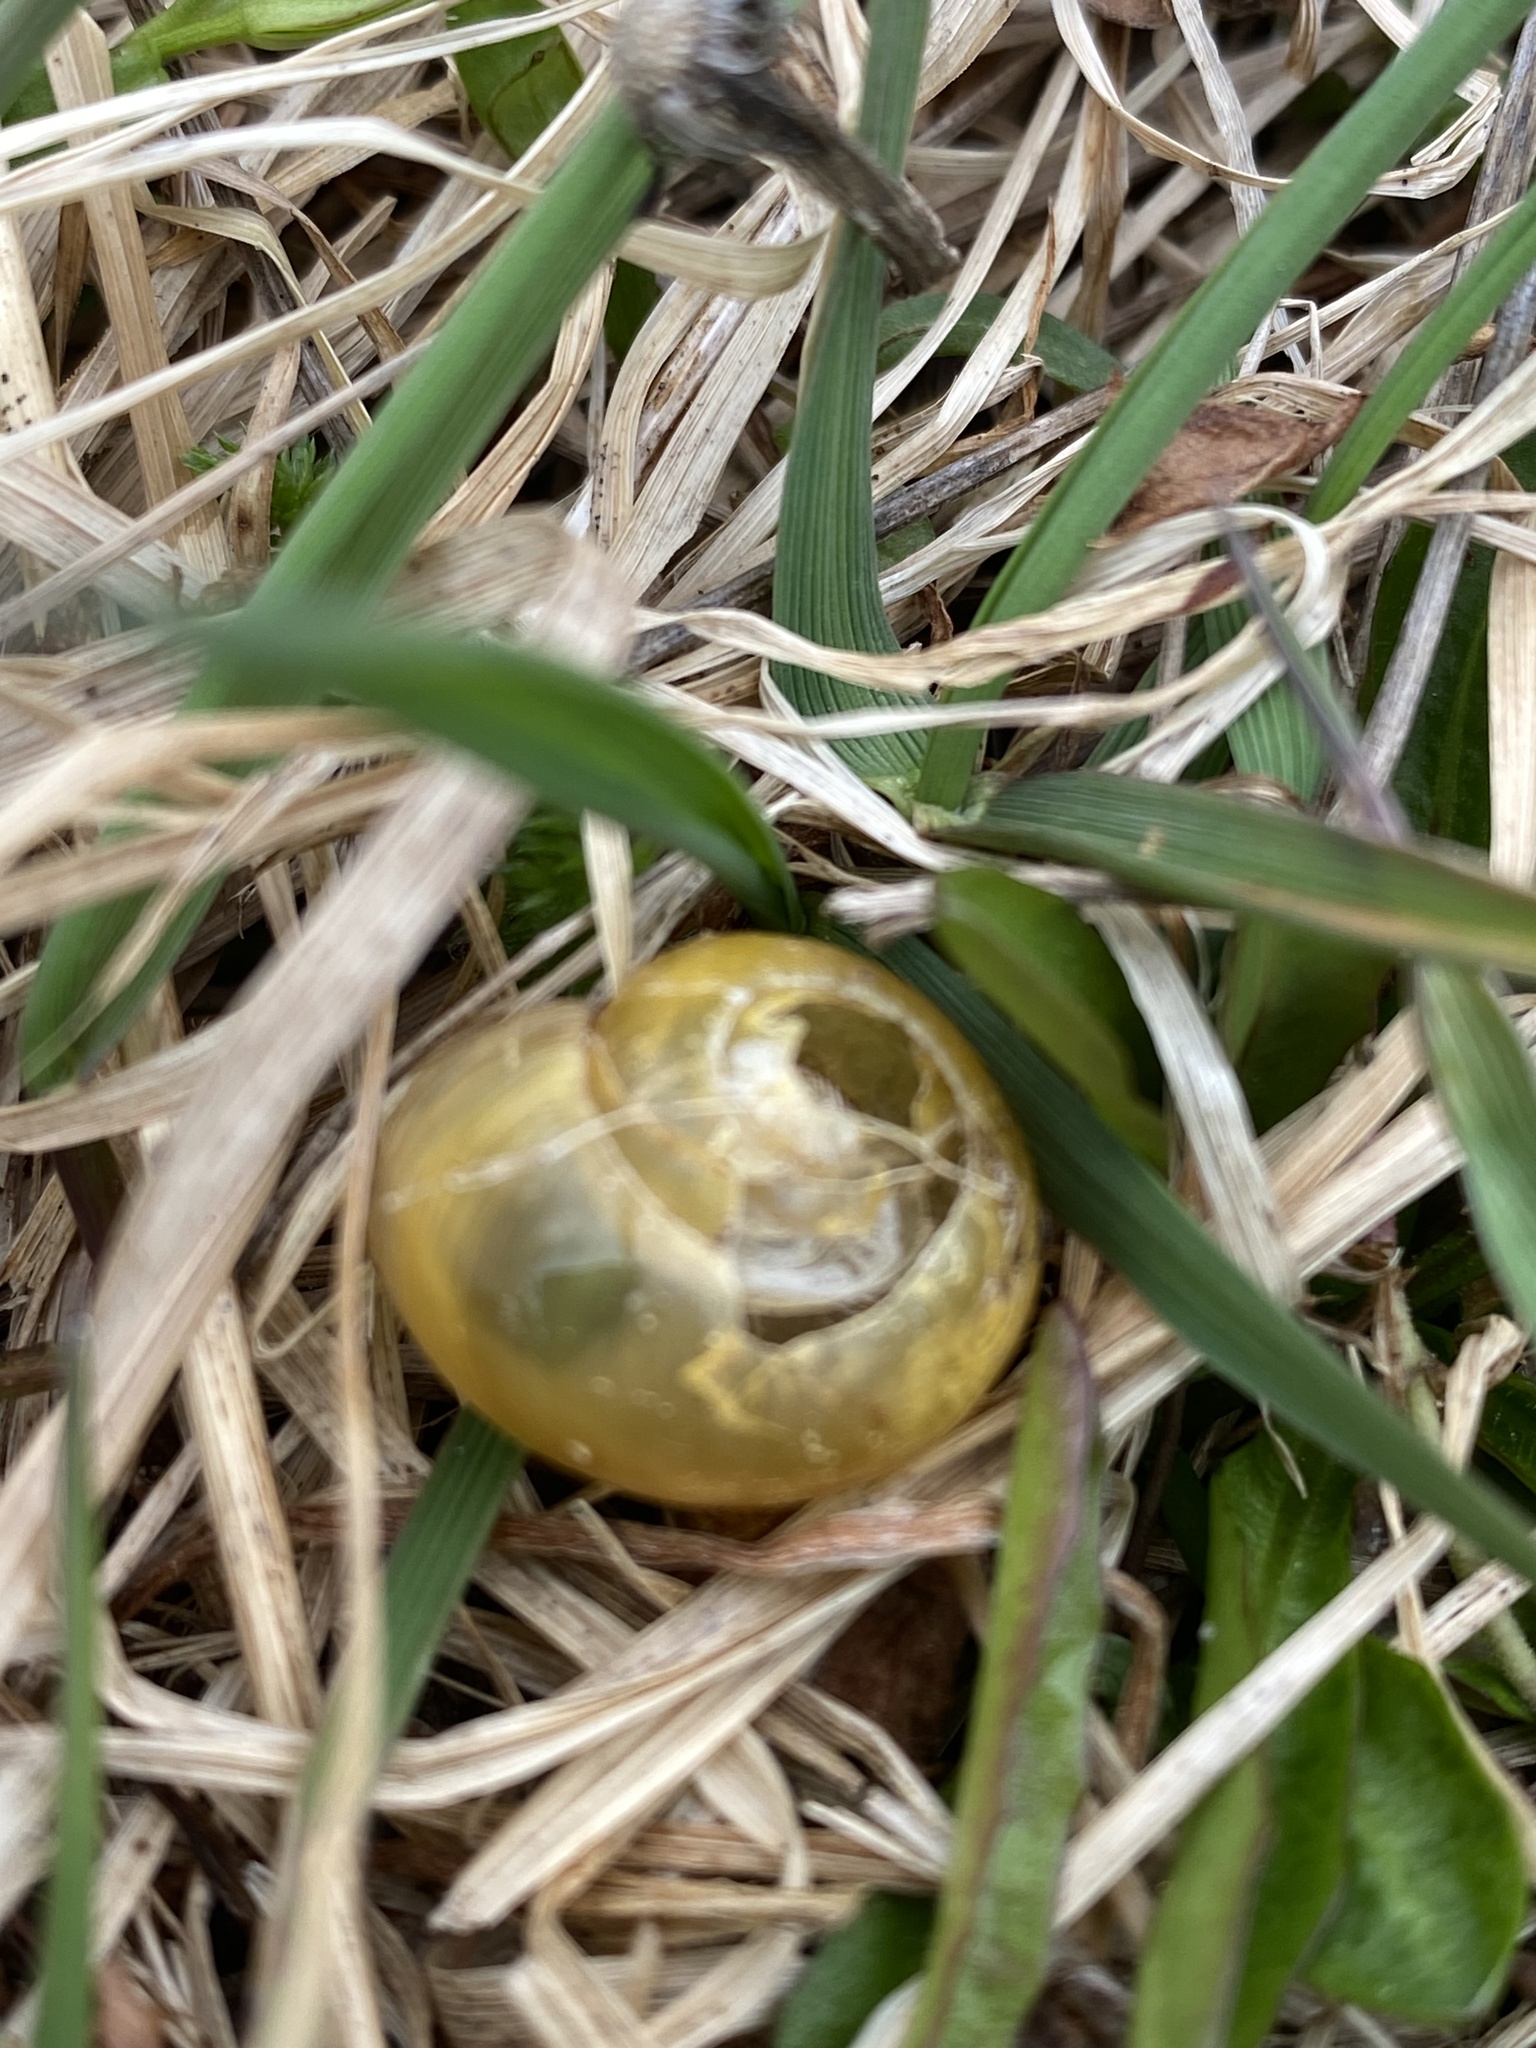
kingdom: Animalia
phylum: Mollusca
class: Gastropoda
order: Stylommatophora
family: Helicidae
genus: Cepaea
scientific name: Cepaea
